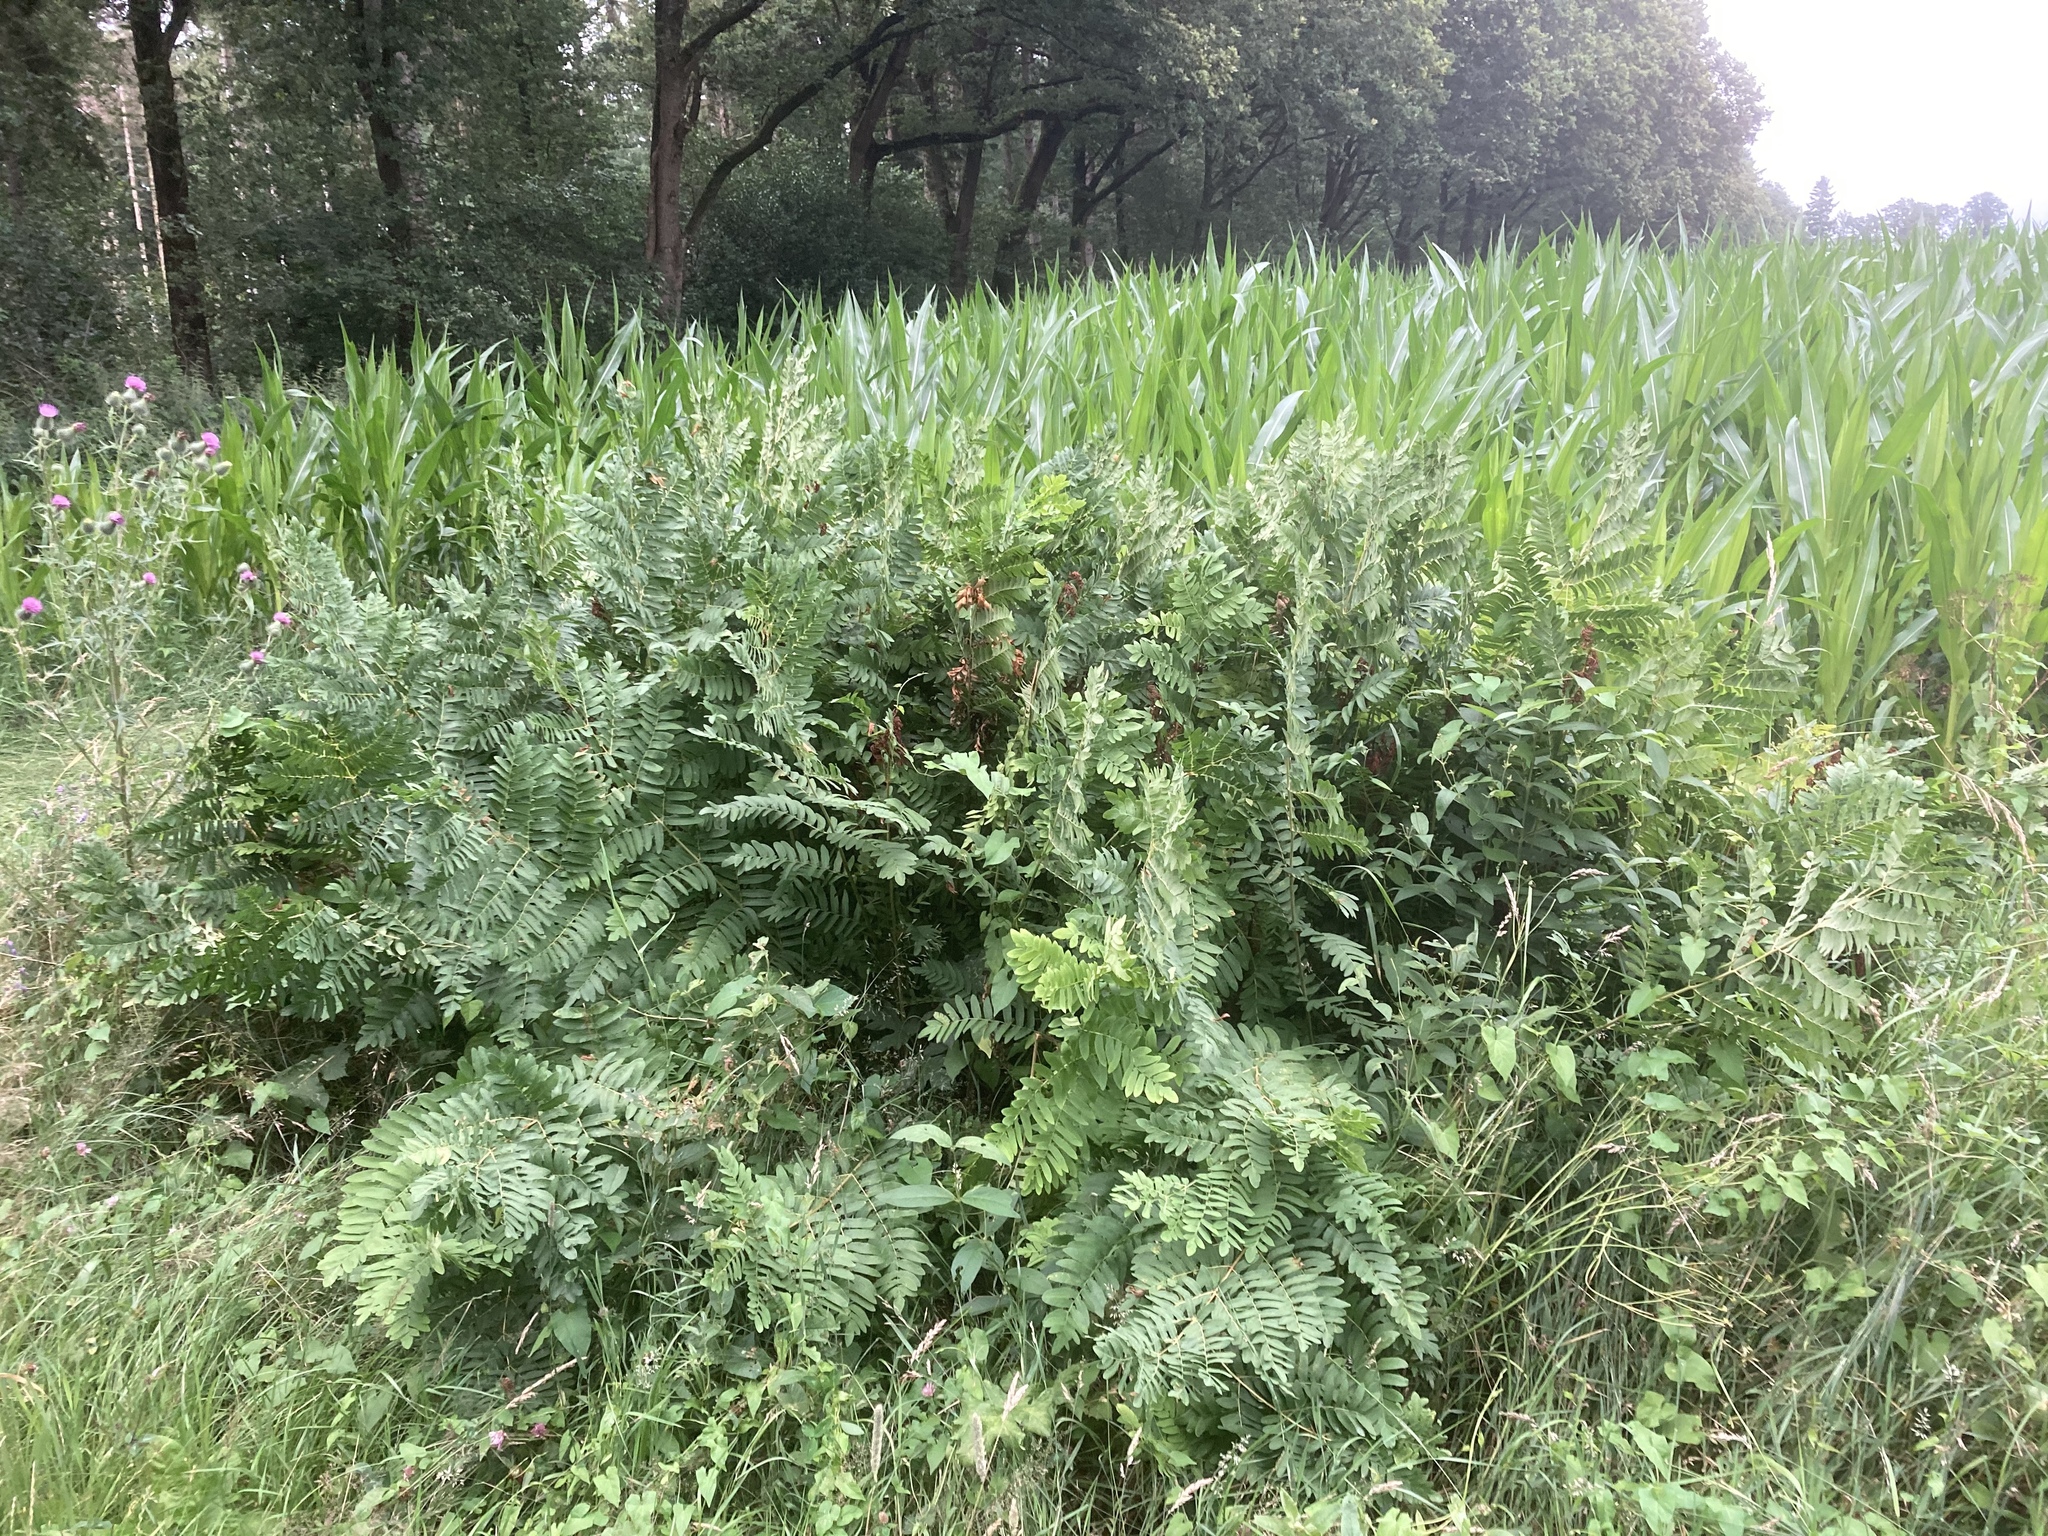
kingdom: Plantae
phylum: Tracheophyta
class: Polypodiopsida
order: Osmundales
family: Osmundaceae
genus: Osmunda
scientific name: Osmunda regalis
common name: Royal fern
